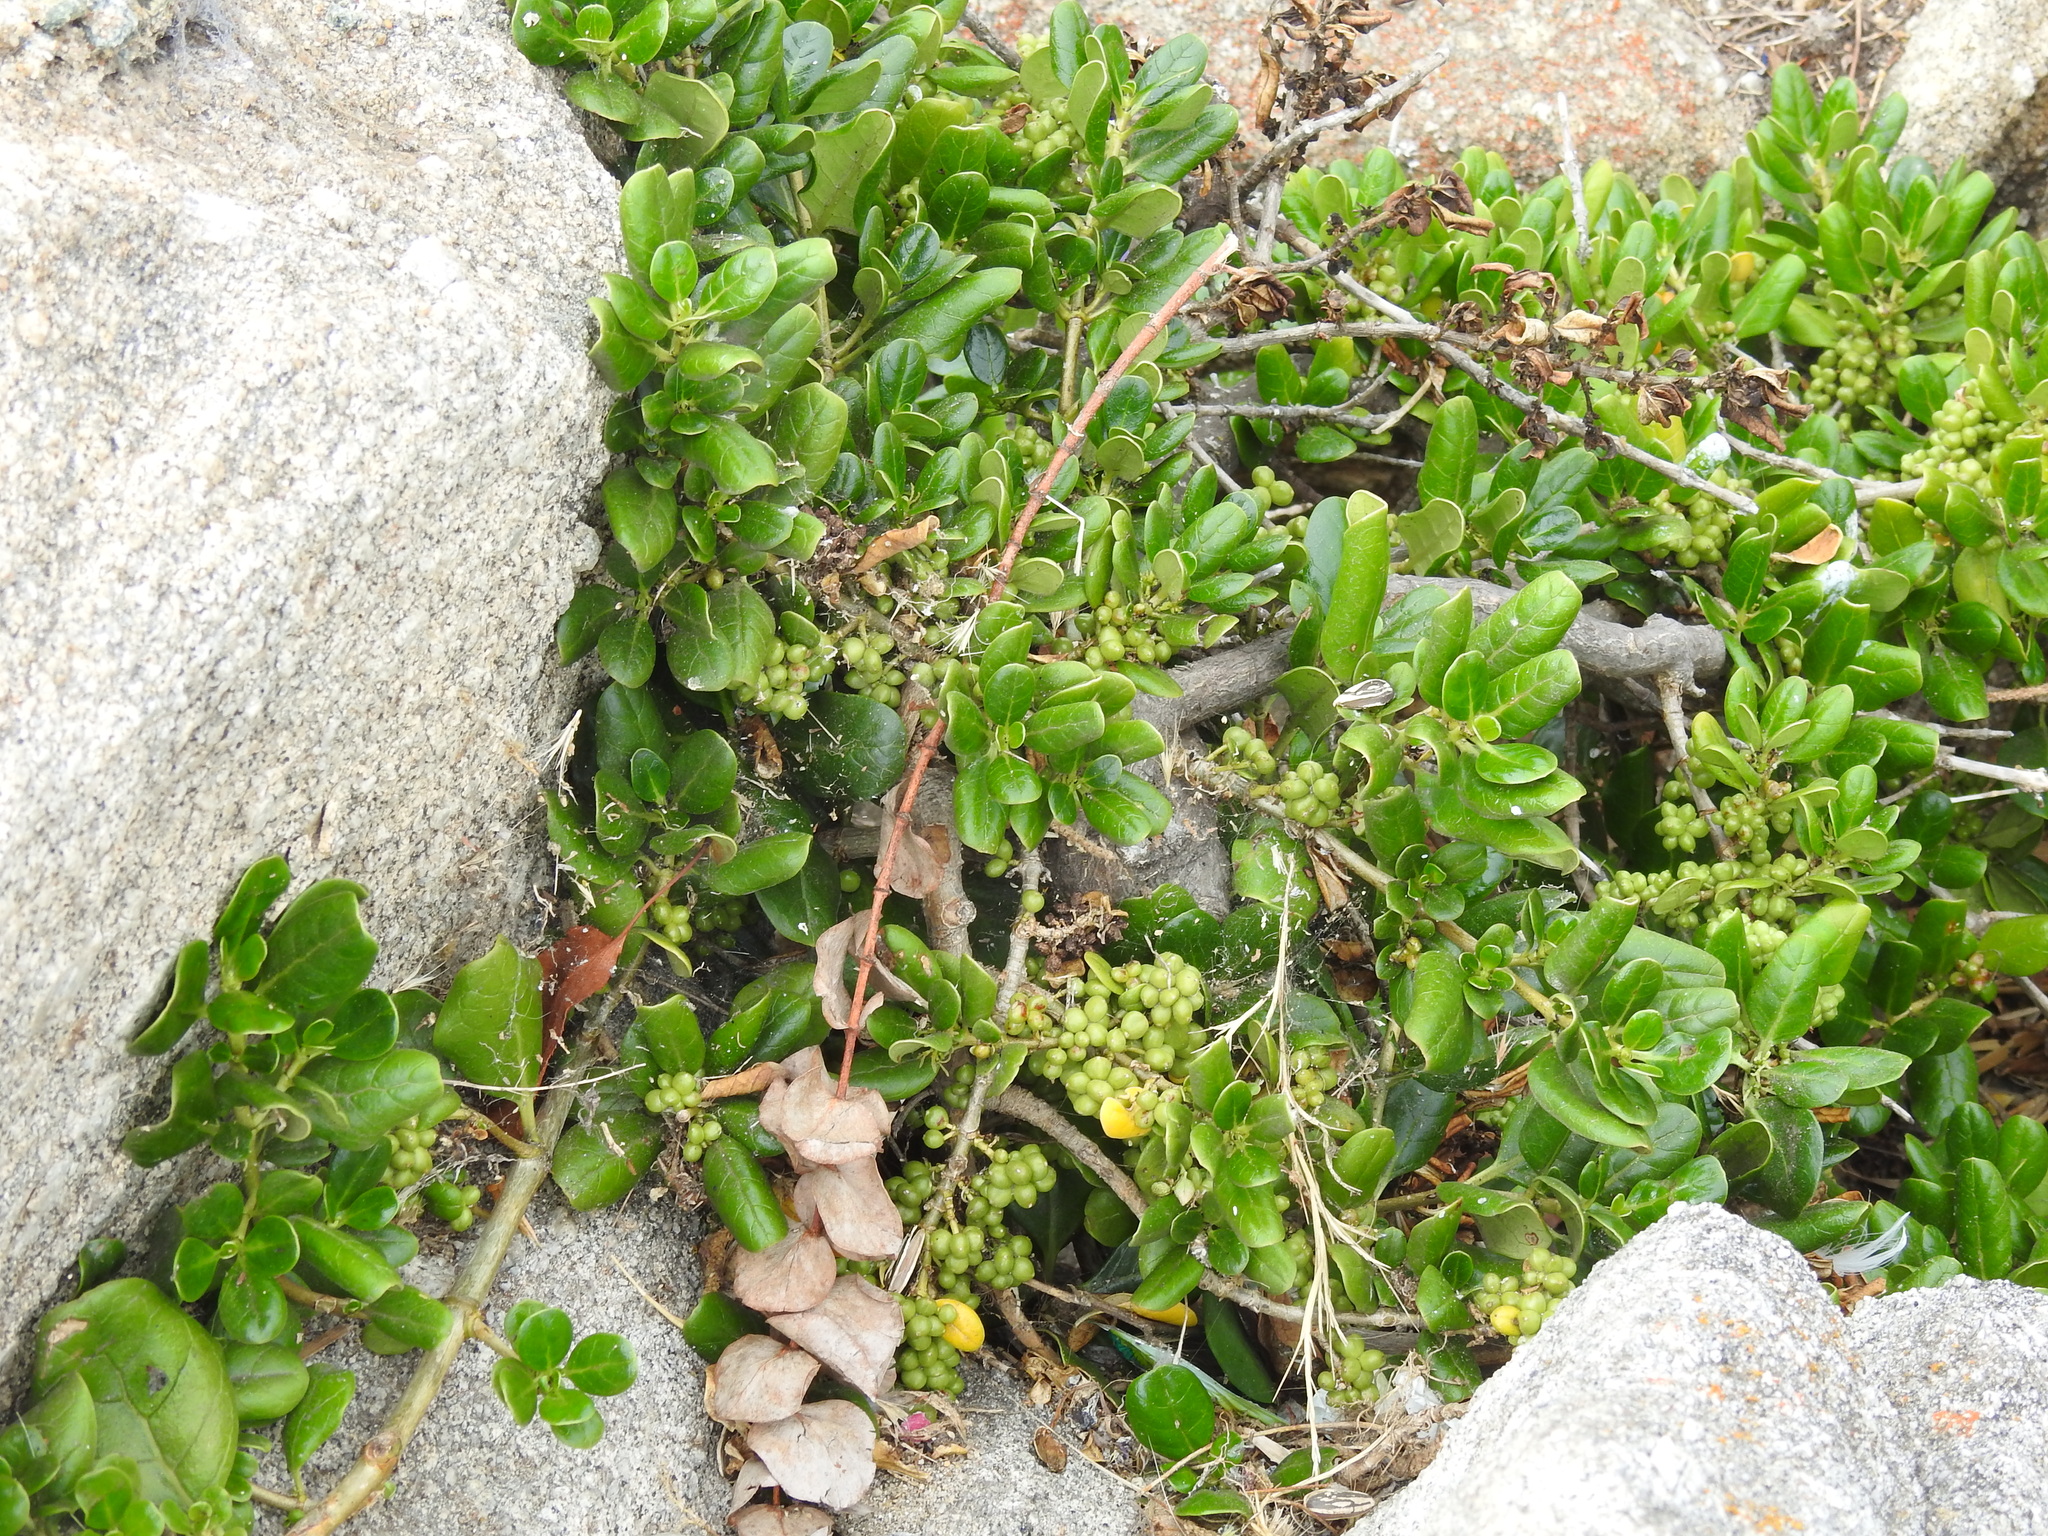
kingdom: Plantae
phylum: Tracheophyta
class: Magnoliopsida
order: Gentianales
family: Rubiaceae
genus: Coprosma
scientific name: Coprosma repens
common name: Tree bedstraw
